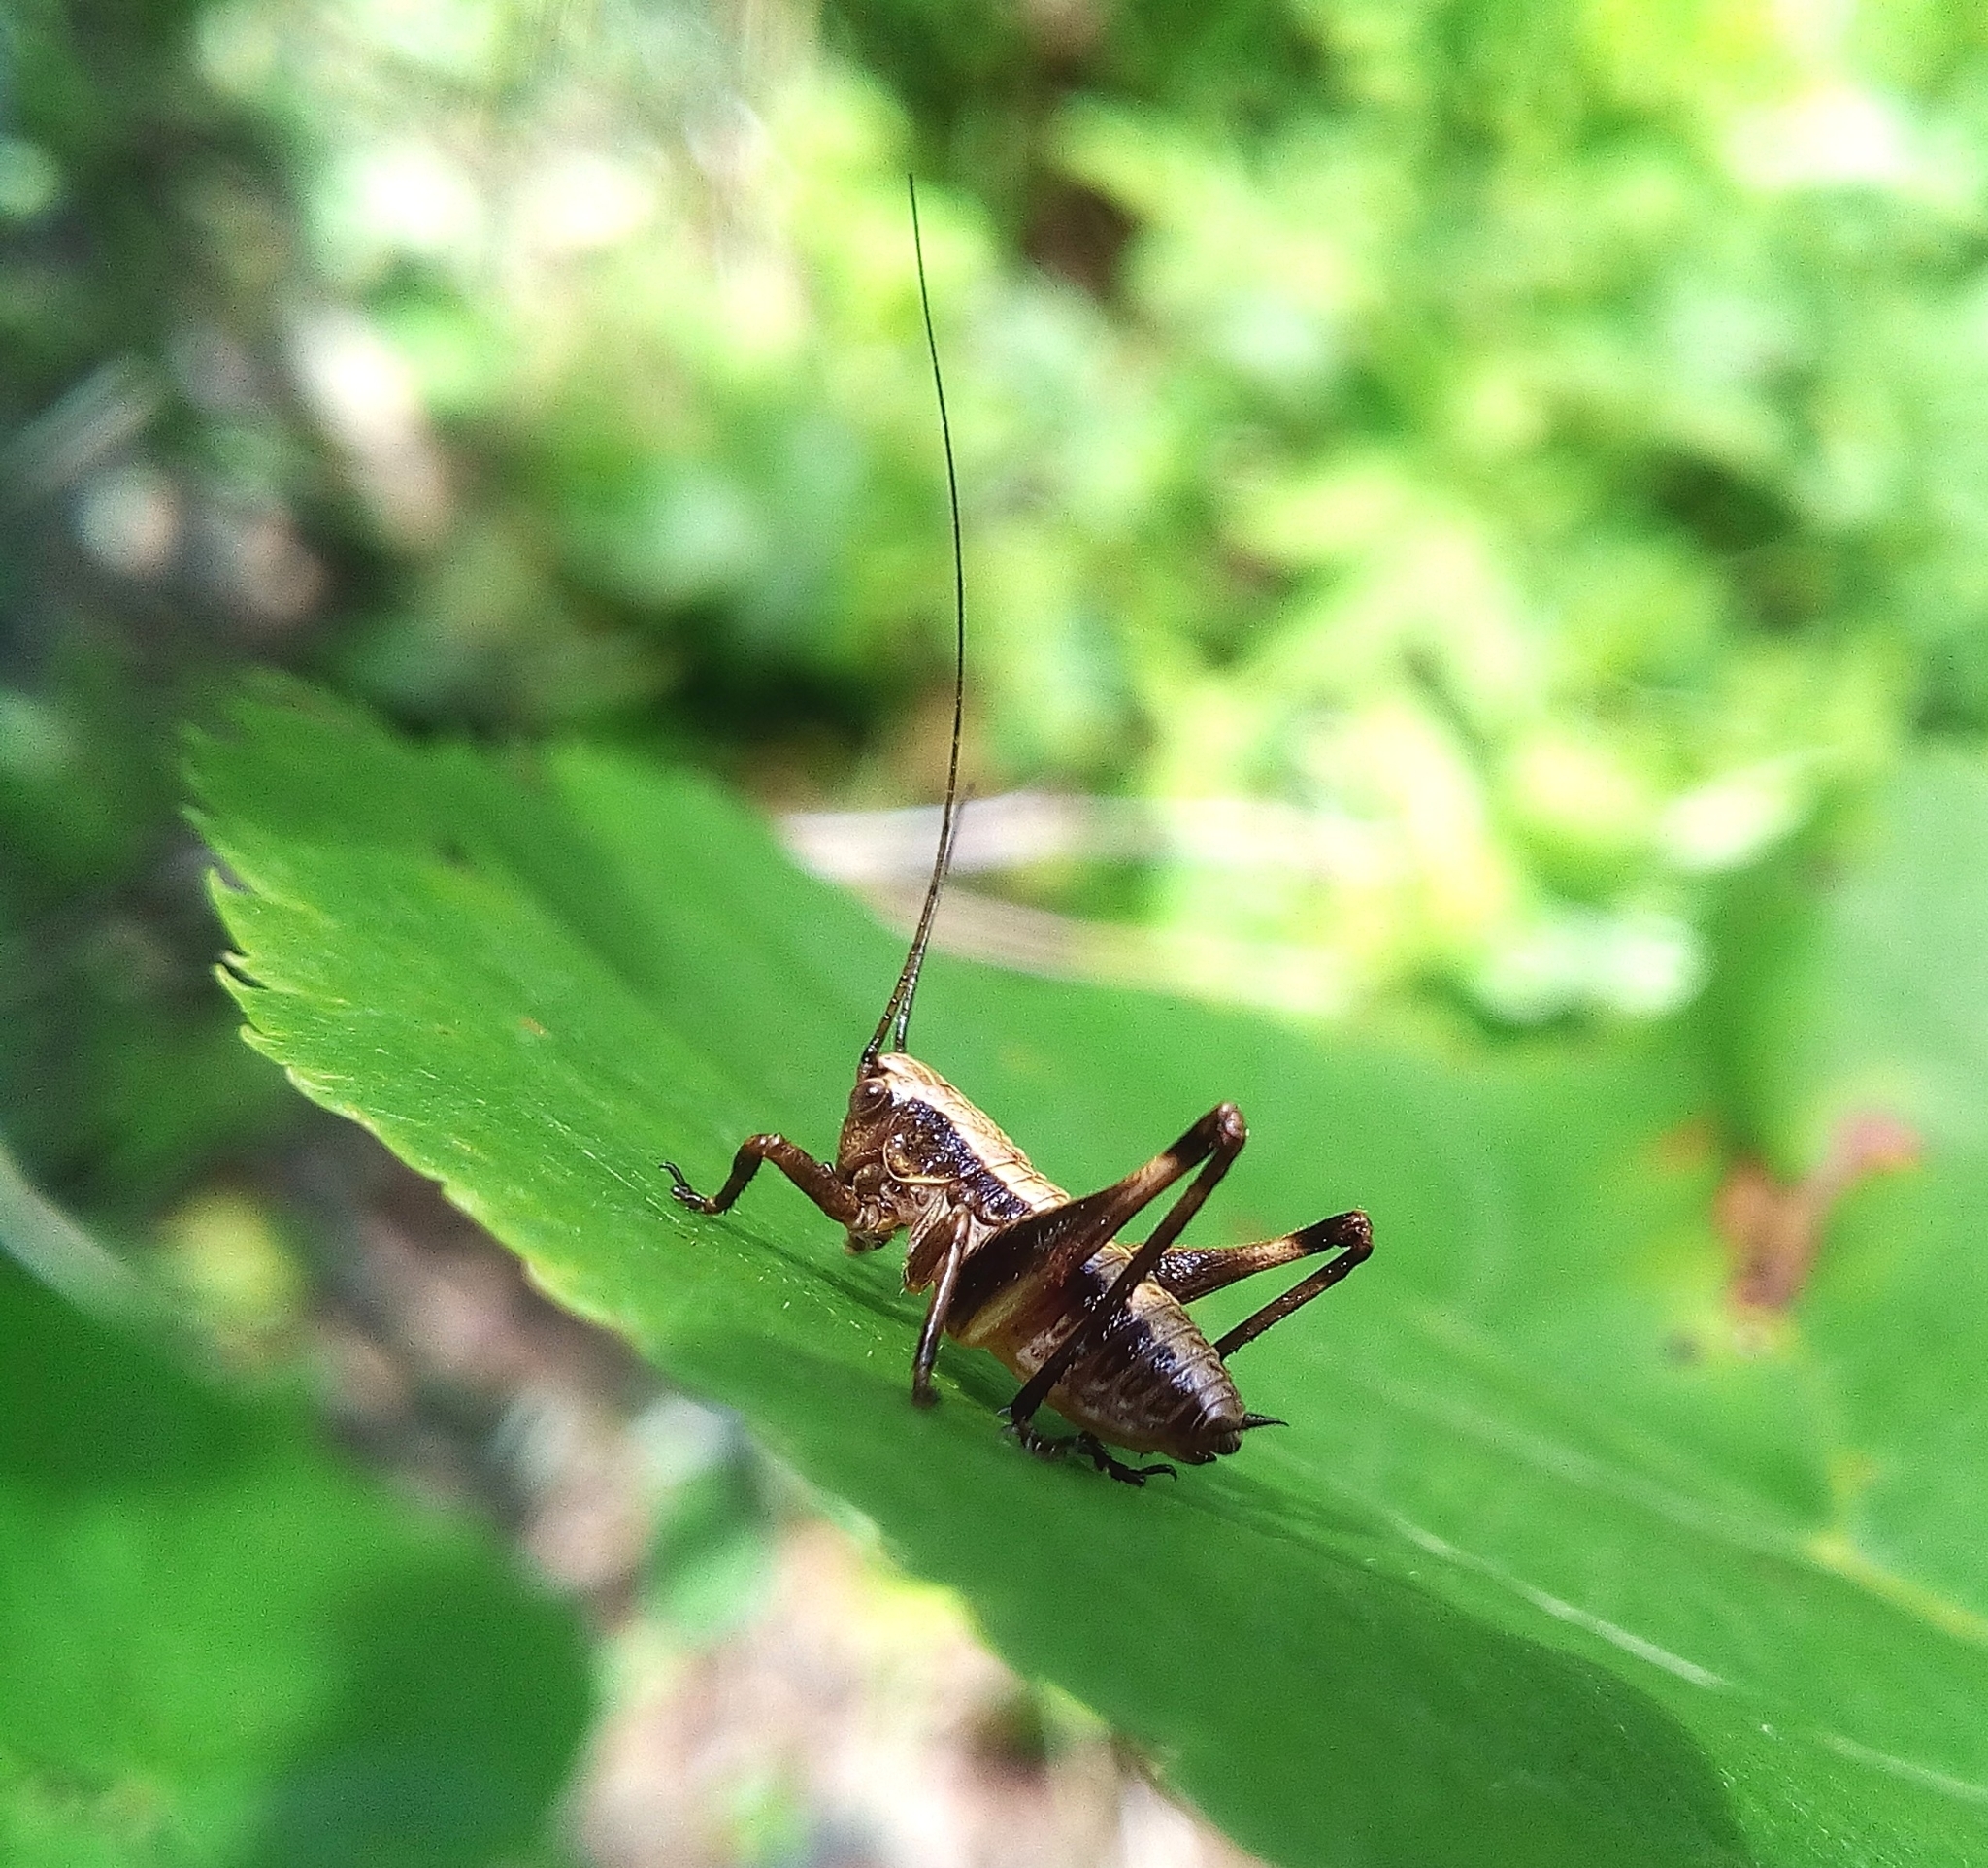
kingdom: Animalia
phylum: Arthropoda
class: Insecta
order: Orthoptera
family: Tettigoniidae
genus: Pholidoptera
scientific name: Pholidoptera griseoaptera
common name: Dark bush-cricket
